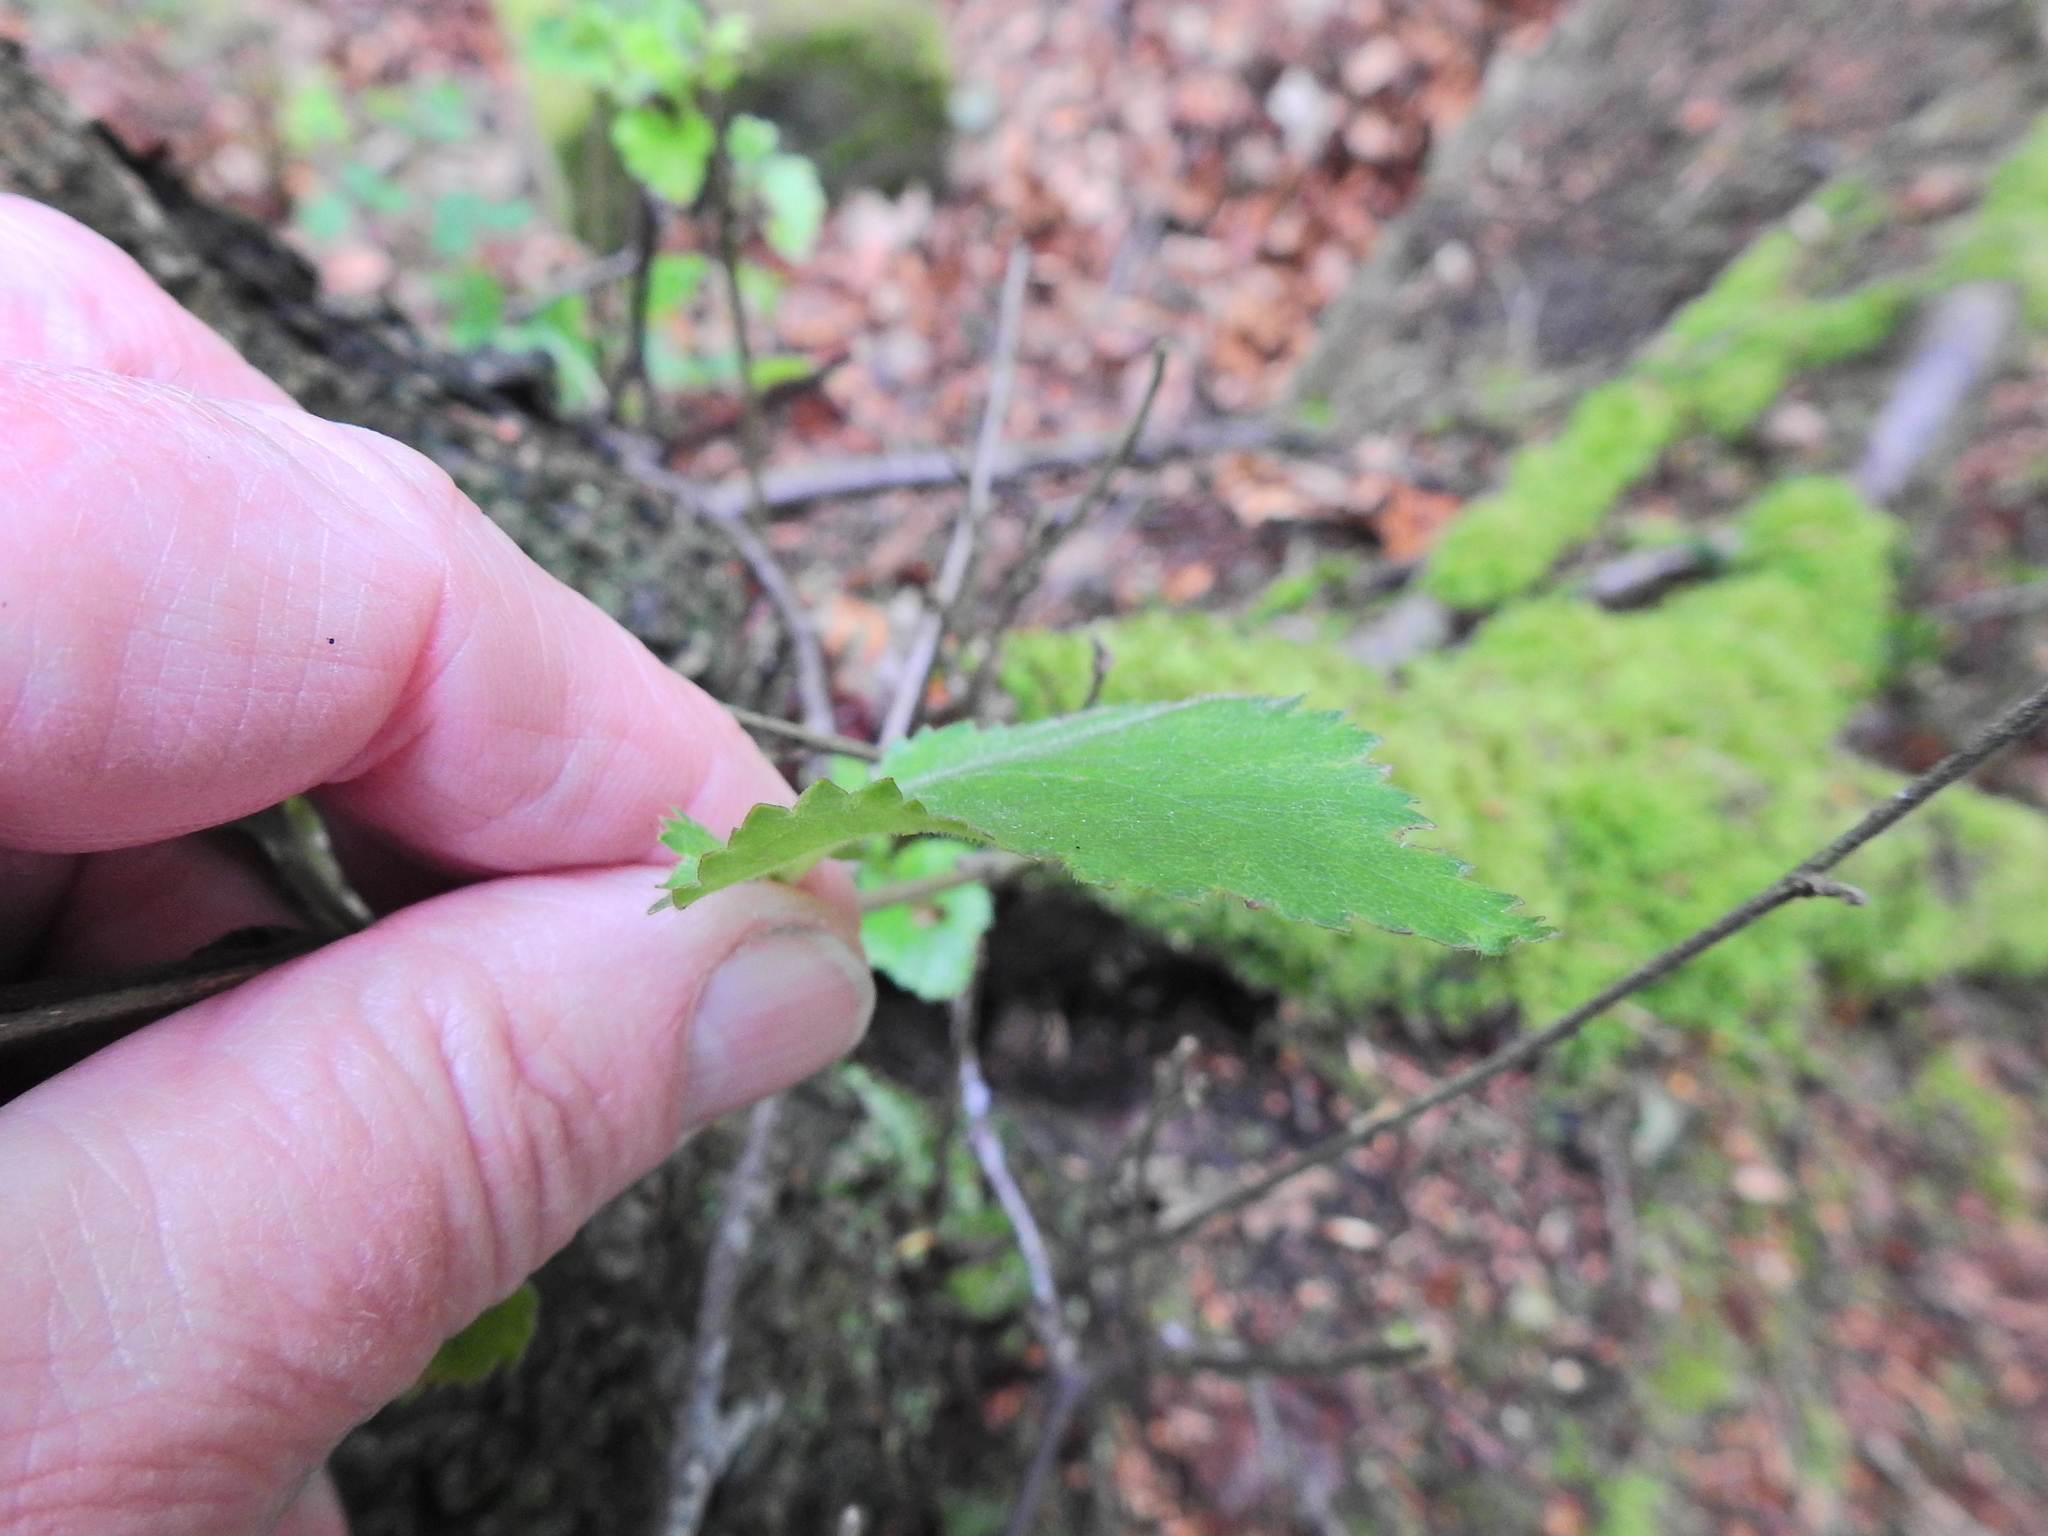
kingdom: Plantae
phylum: Tracheophyta
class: Magnoliopsida
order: Fagales
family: Betulaceae
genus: Betula
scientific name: Betula pubescens
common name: Downy birch
